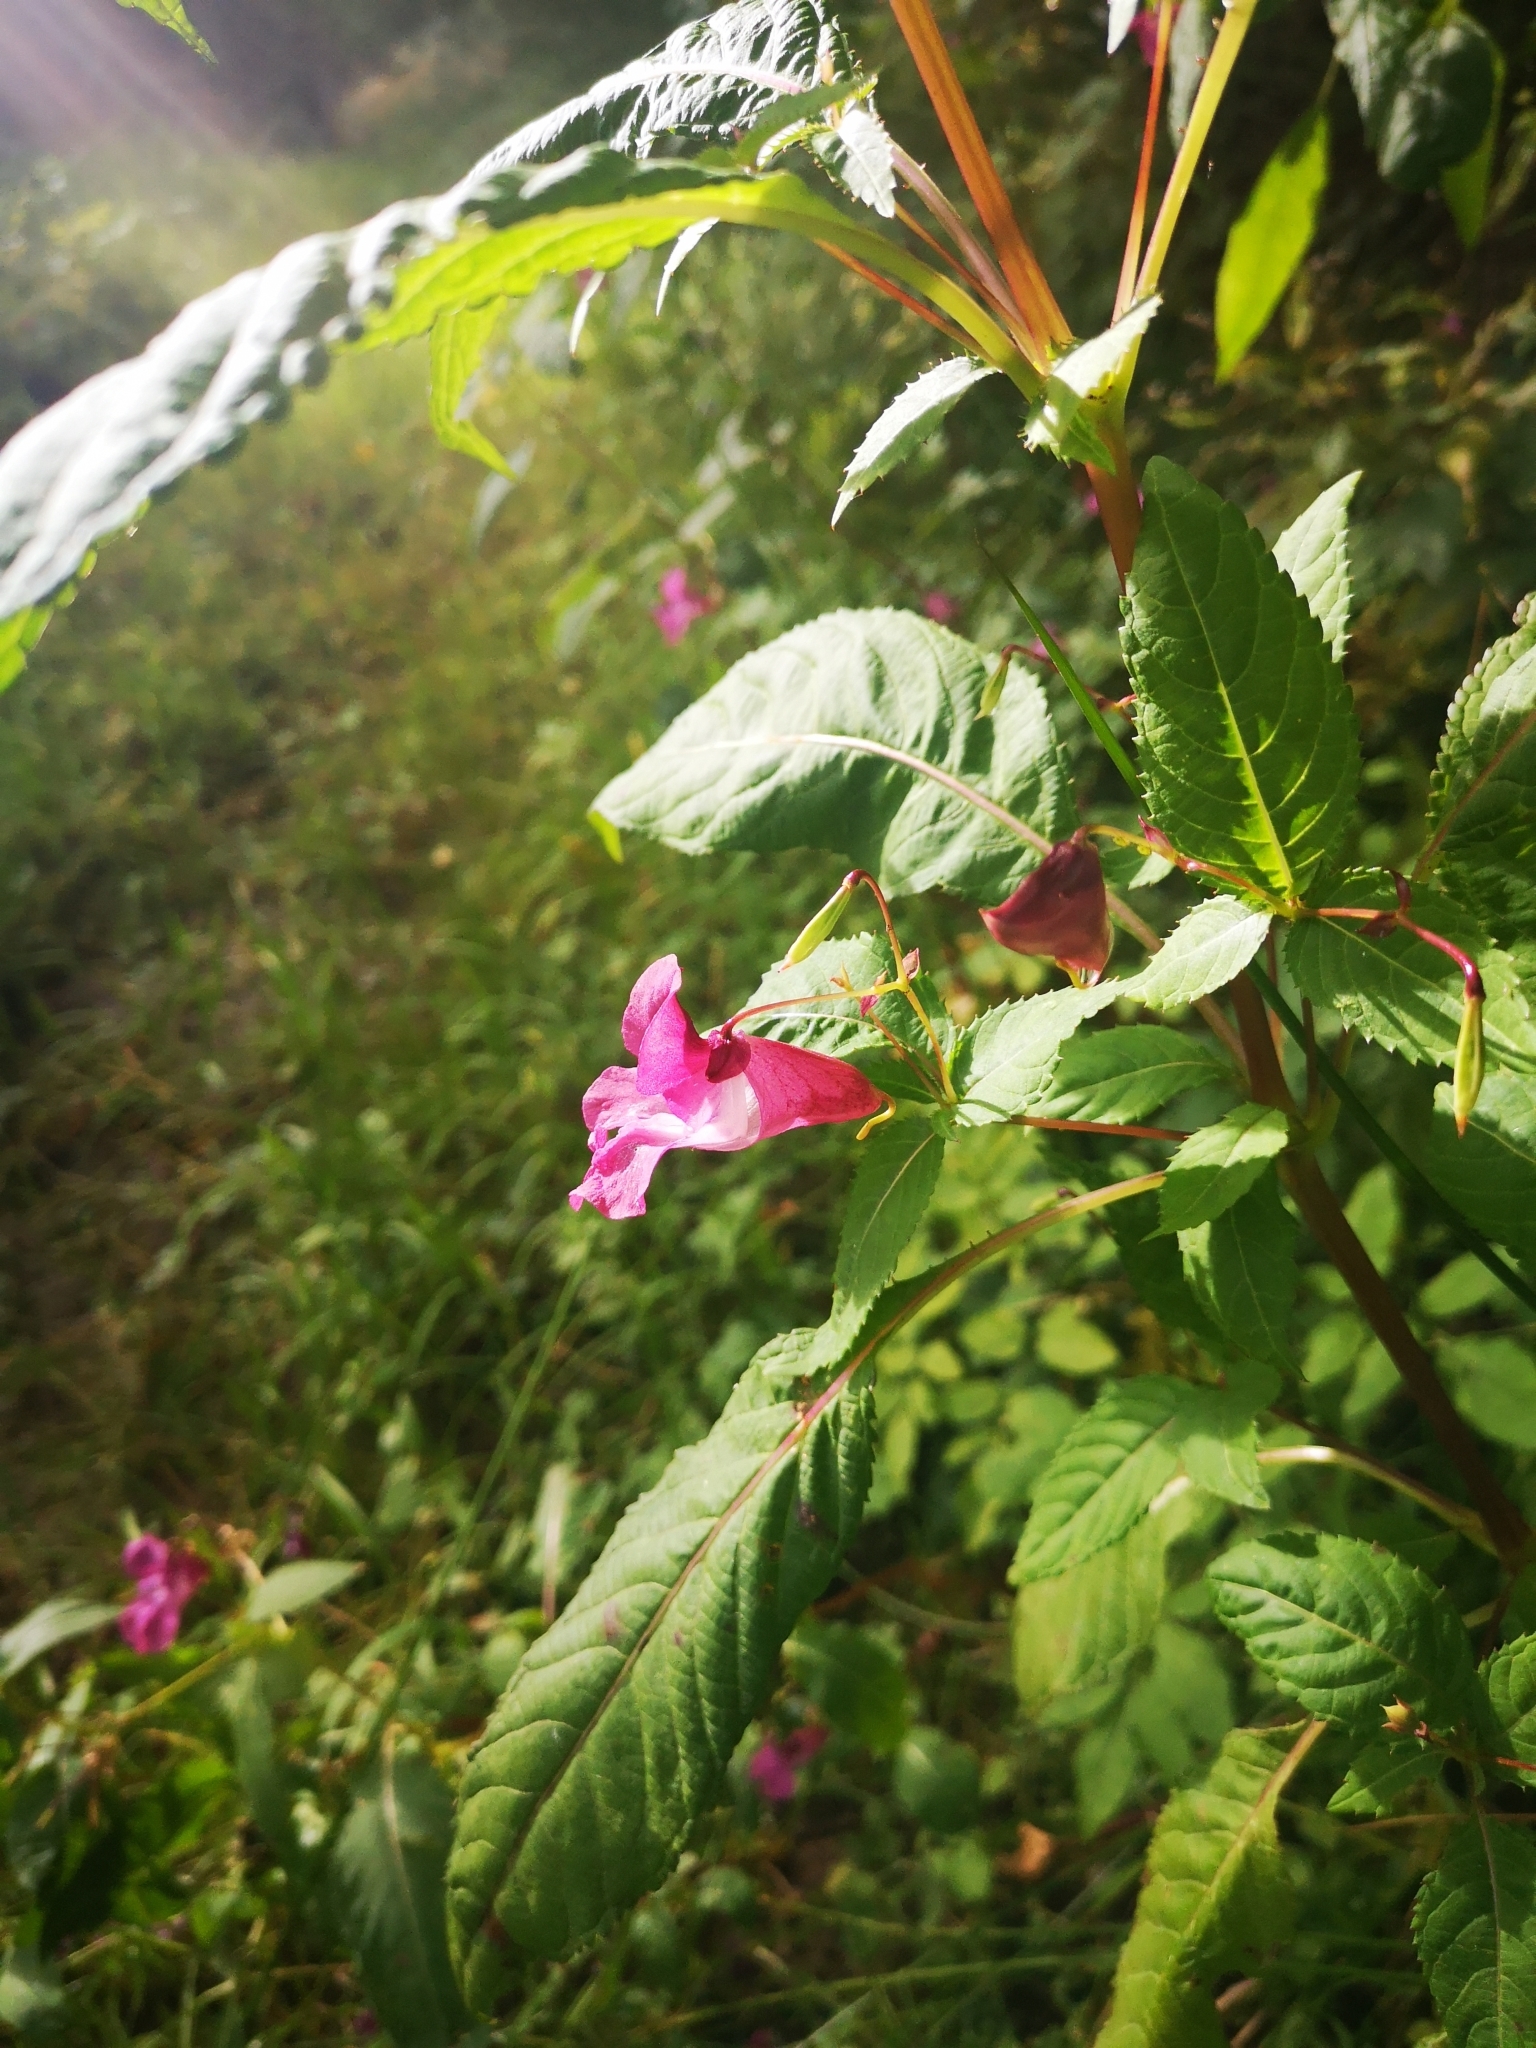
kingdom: Plantae
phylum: Tracheophyta
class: Magnoliopsida
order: Ericales
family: Balsaminaceae
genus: Impatiens
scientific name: Impatiens glandulifera
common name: Himalayan balsam
